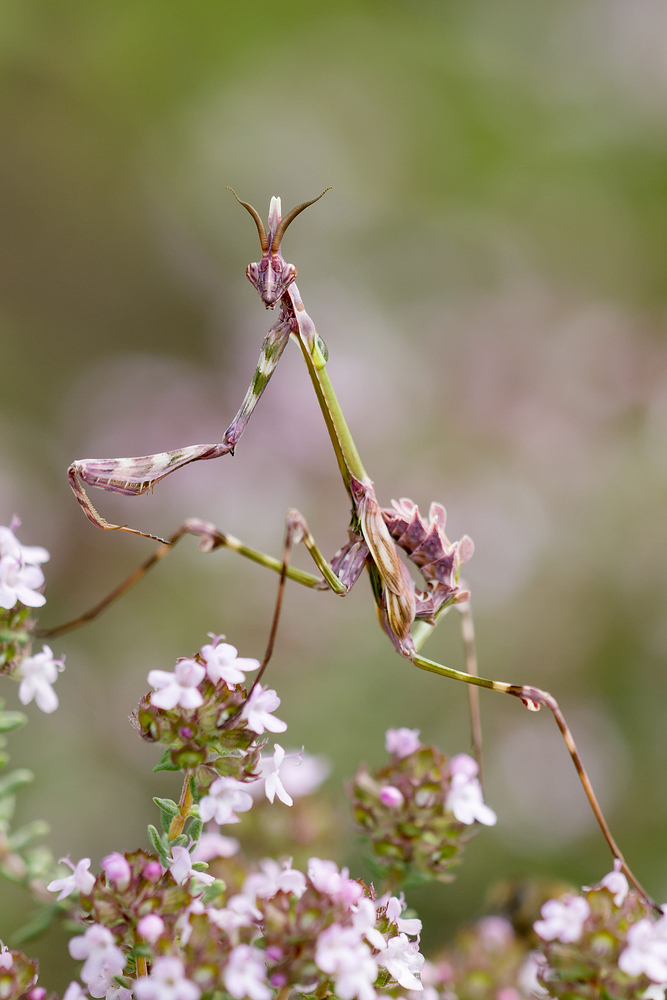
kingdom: Animalia
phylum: Arthropoda
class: Insecta
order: Mantodea
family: Empusidae
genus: Empusa
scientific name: Empusa pennata
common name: Conehead mantis
